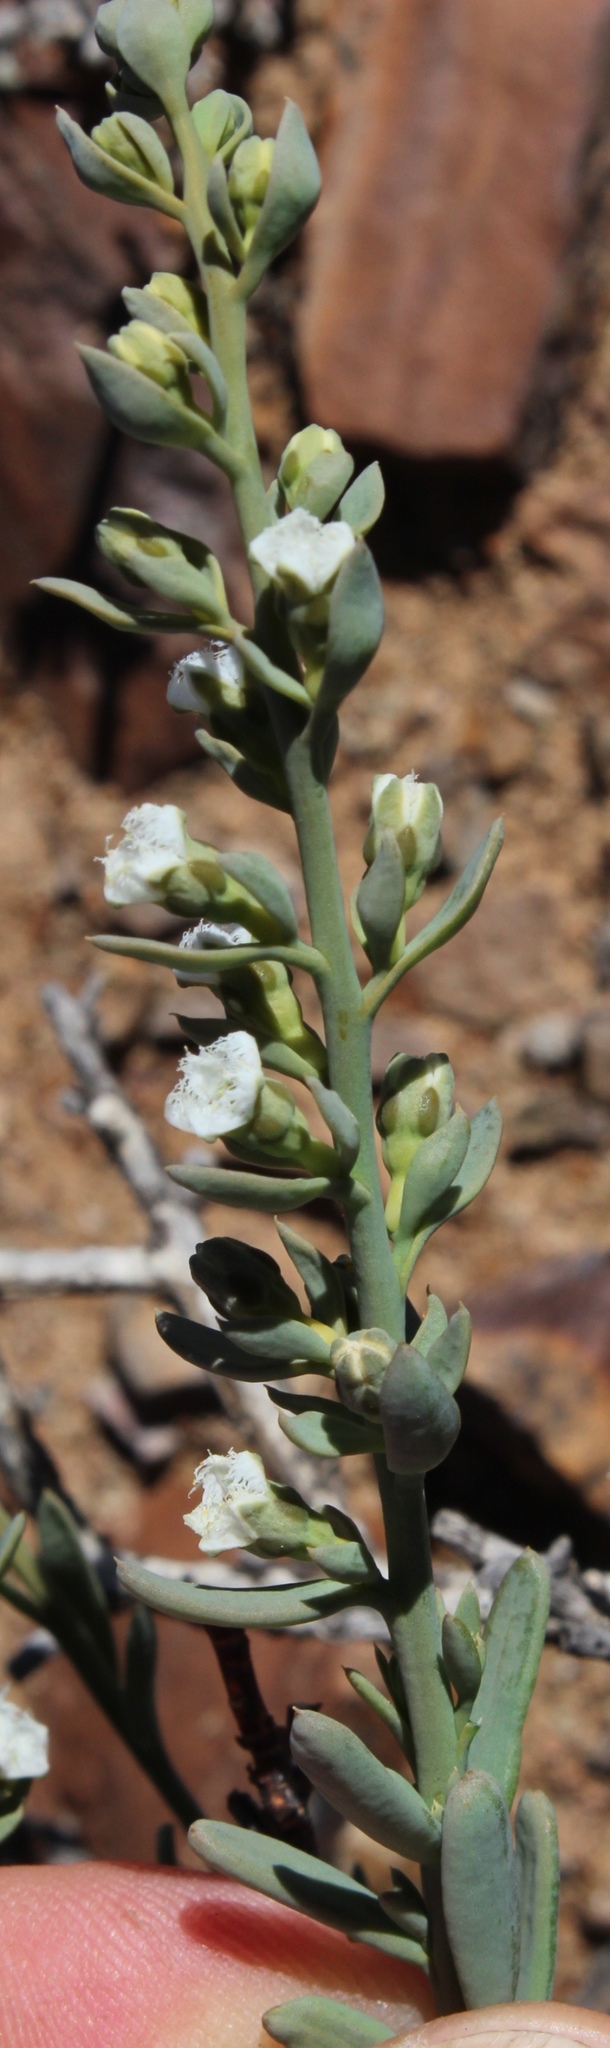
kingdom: Plantae
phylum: Tracheophyta
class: Magnoliopsida
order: Santalales
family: Thesiaceae
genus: Thesium
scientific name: Thesium hillianum
